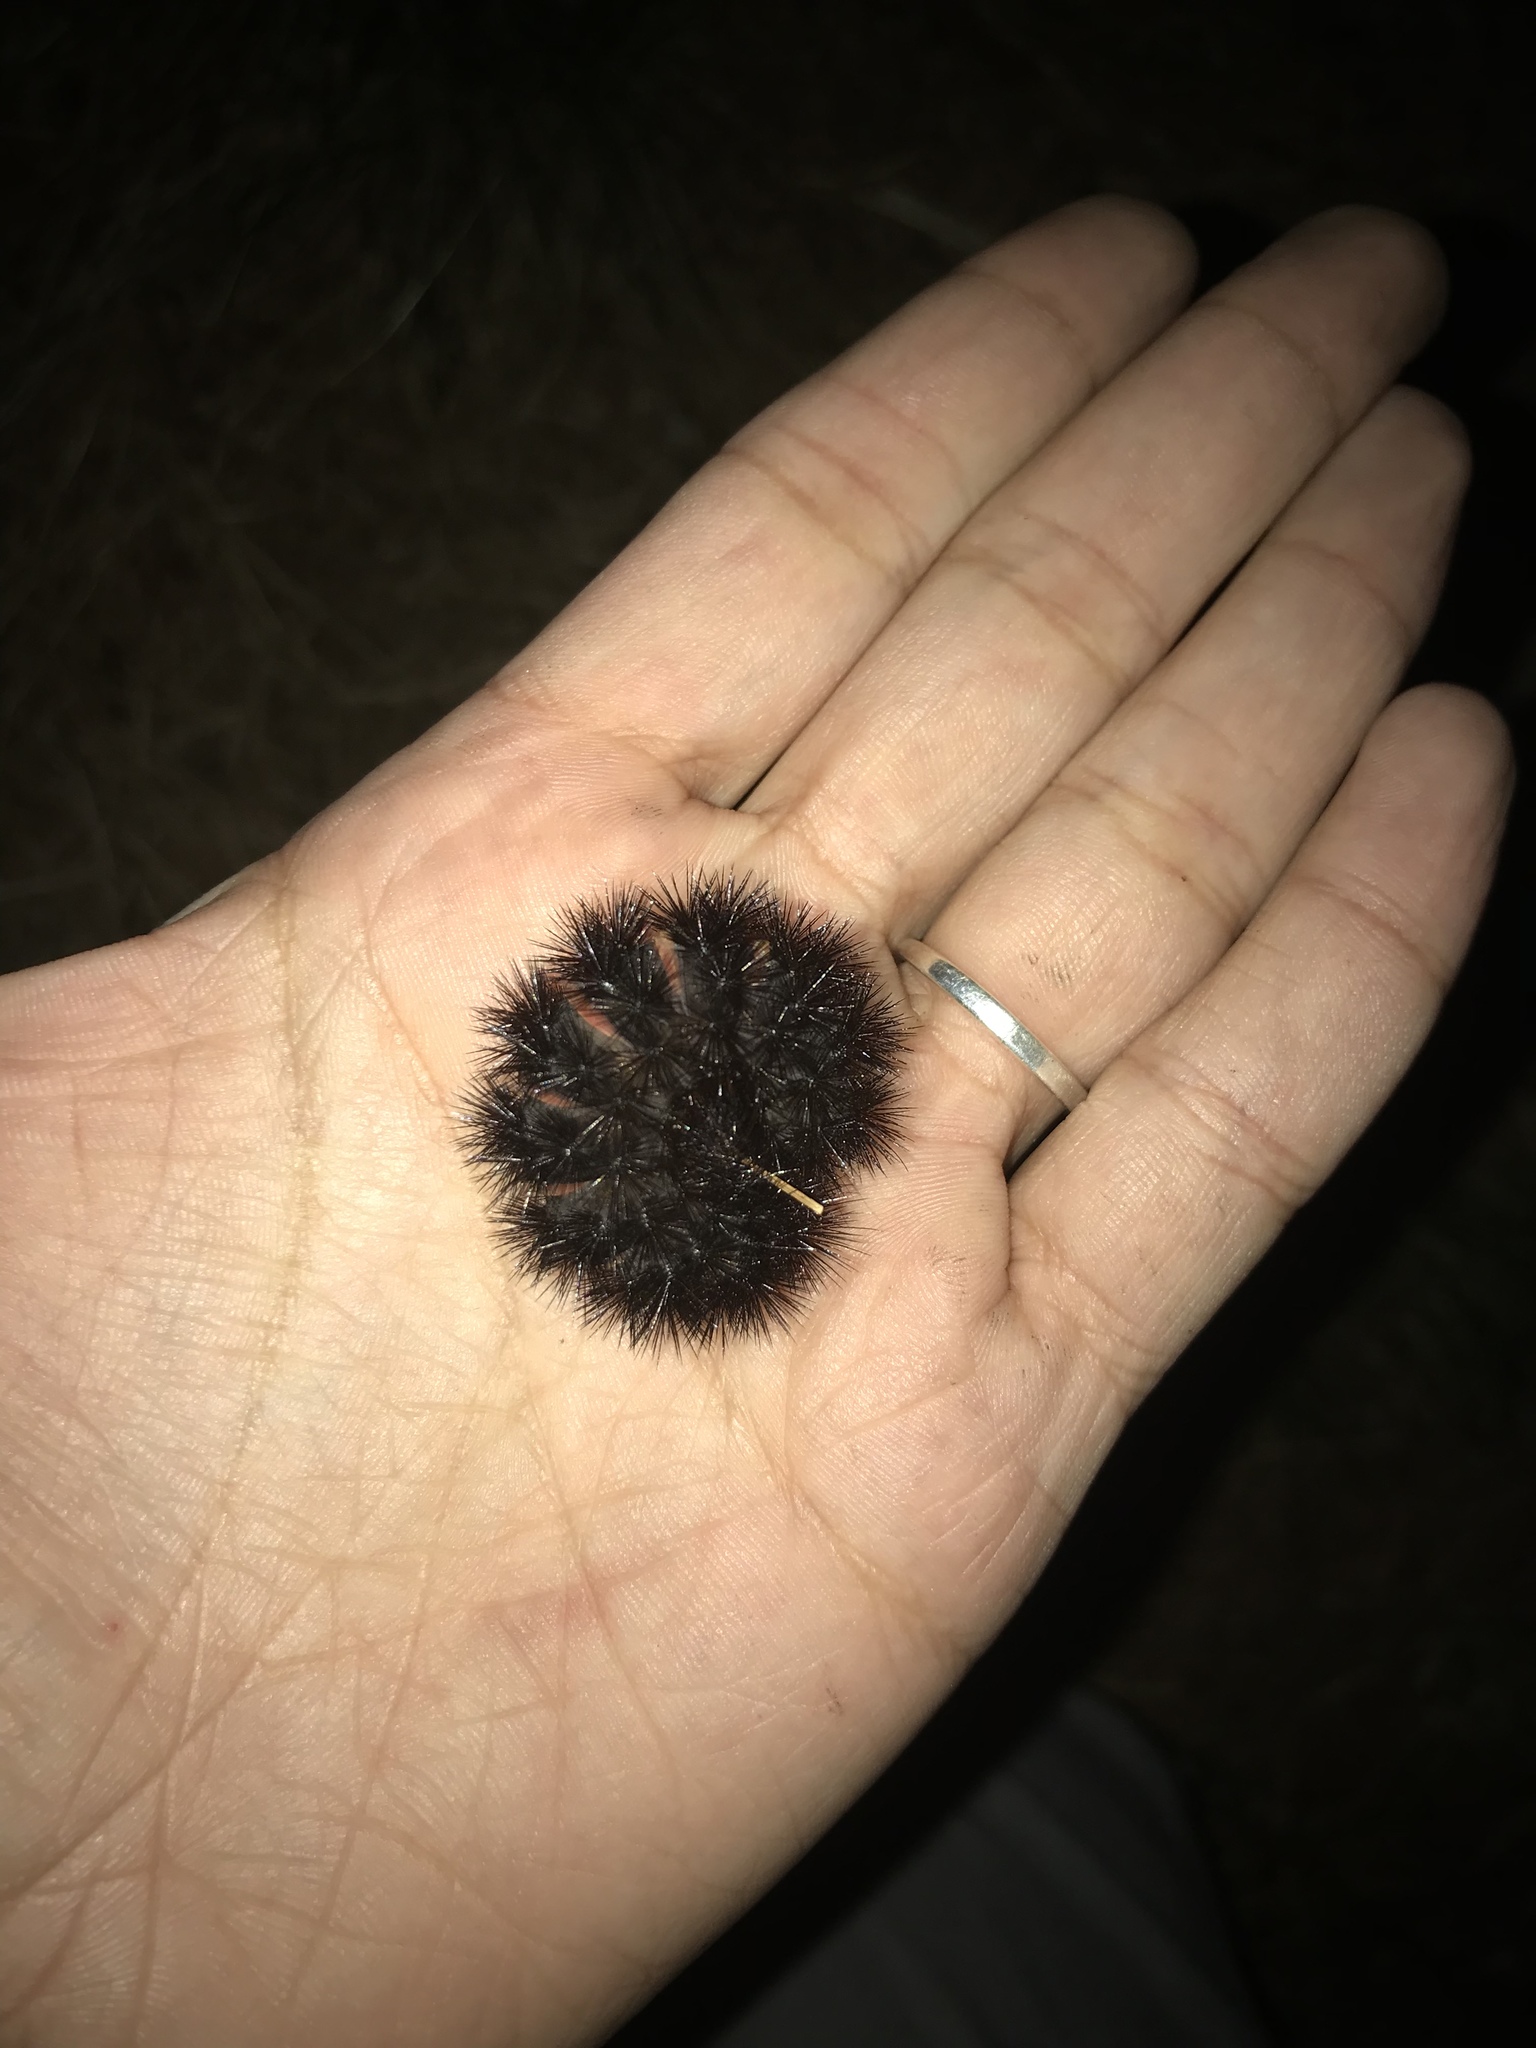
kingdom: Animalia
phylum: Arthropoda
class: Insecta
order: Lepidoptera
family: Erebidae
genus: Hypercompe
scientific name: Hypercompe scribonia
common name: Giant leopard moth
